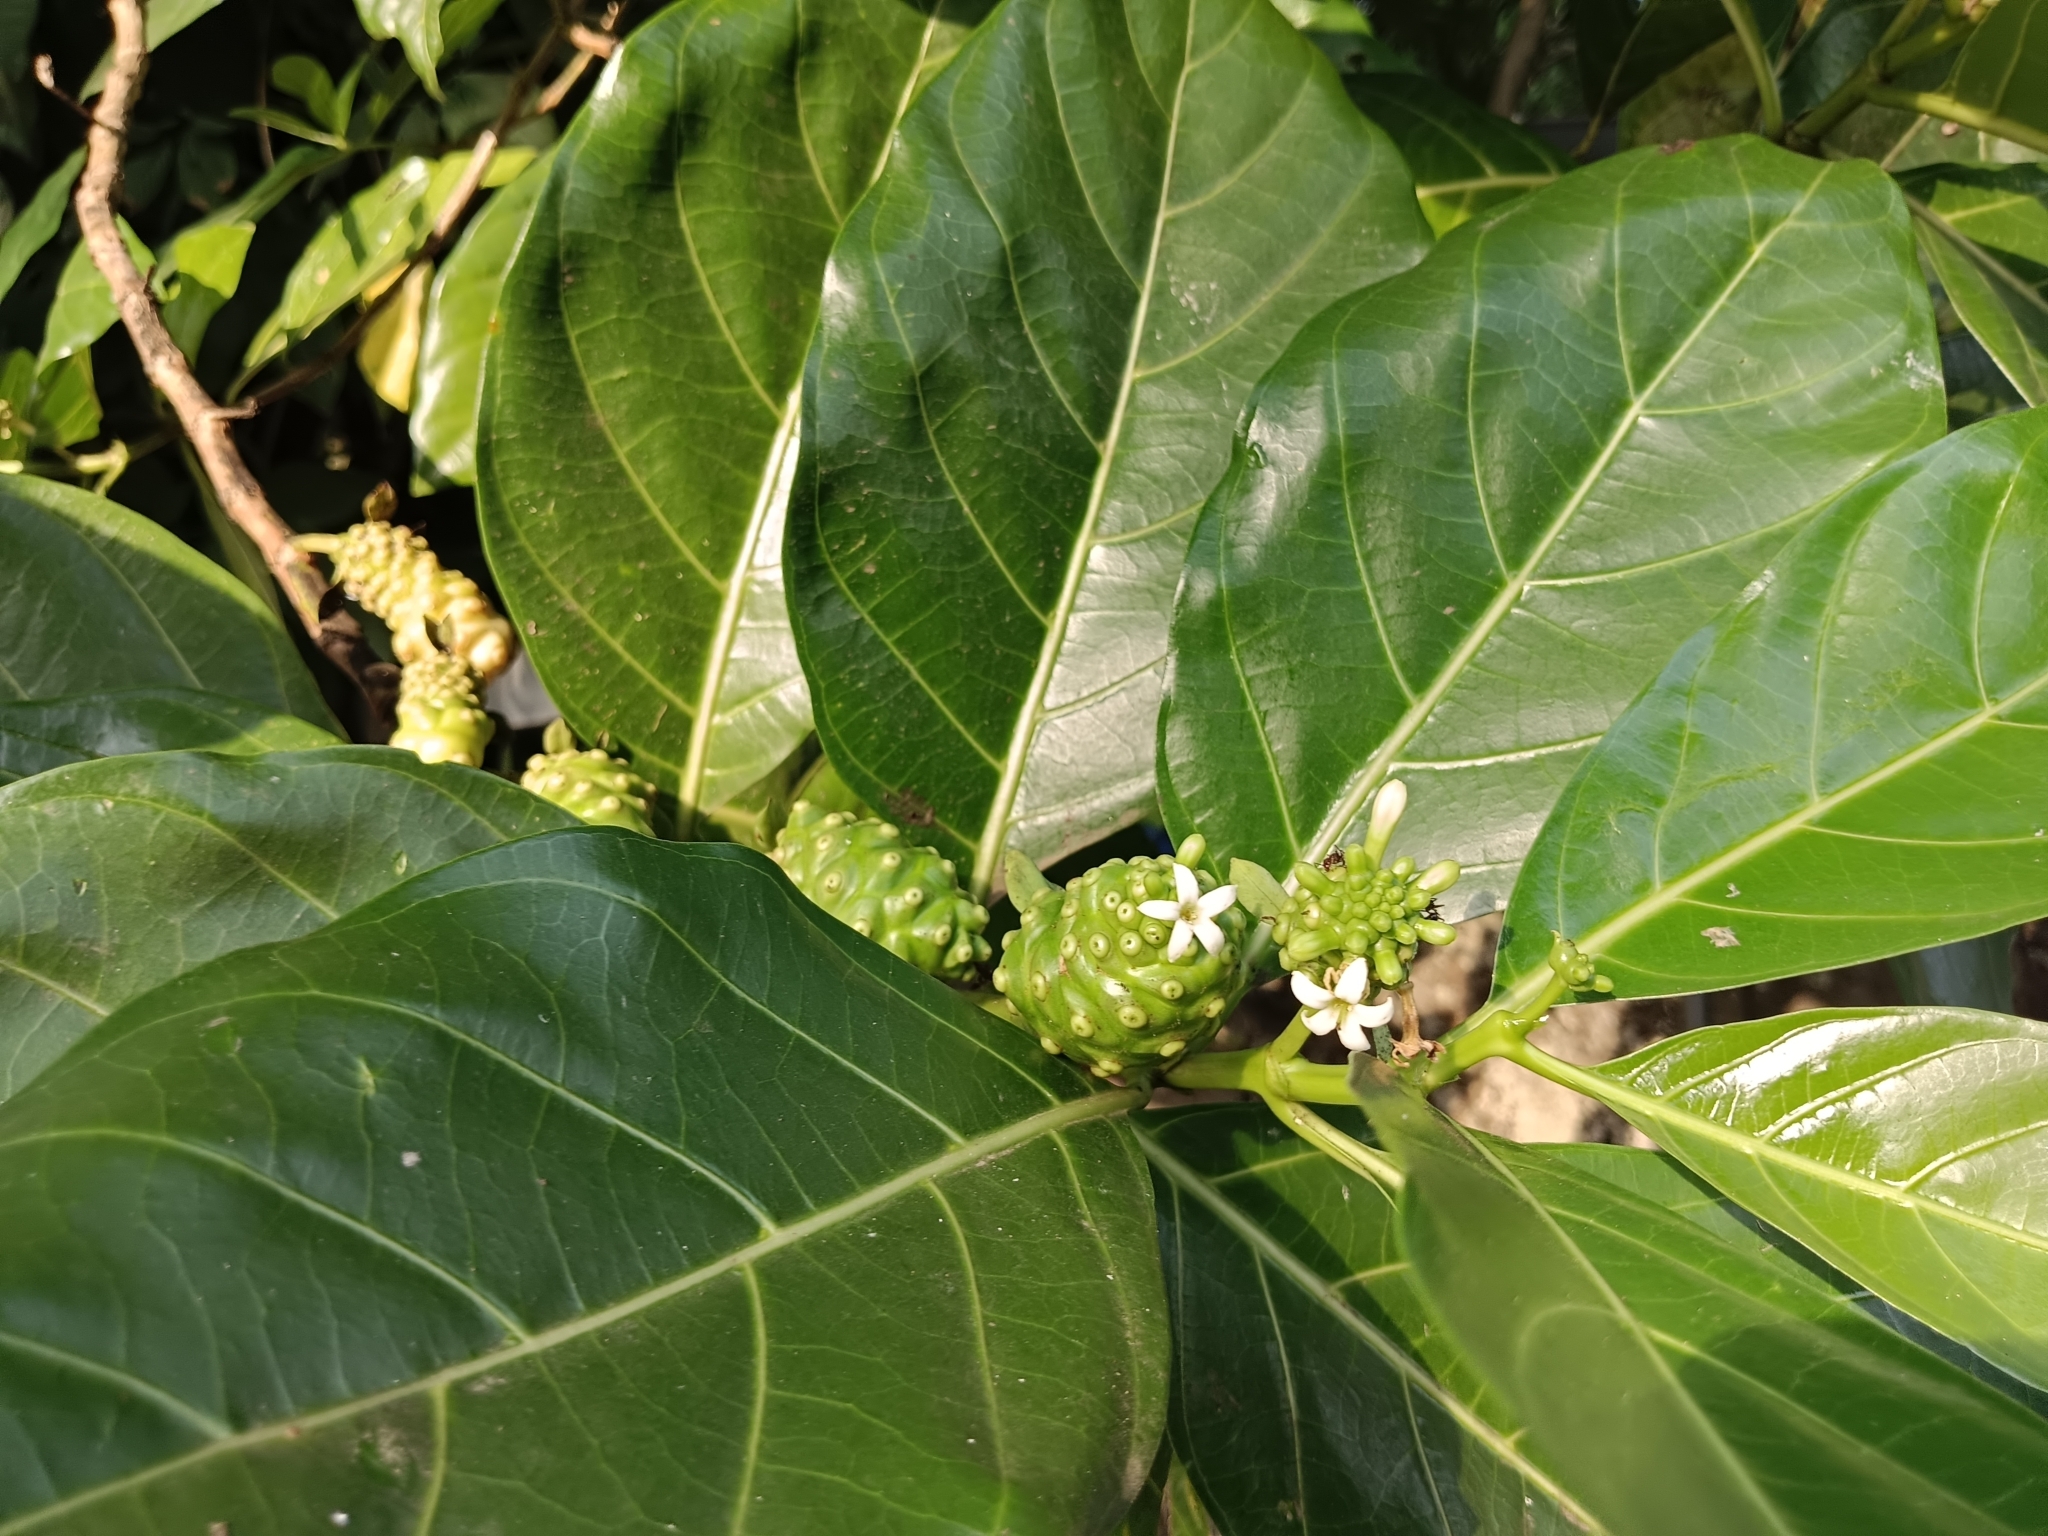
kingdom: Plantae
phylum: Tracheophyta
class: Magnoliopsida
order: Gentianales
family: Rubiaceae
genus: Morinda
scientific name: Morinda citrifolia
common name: Indian-mulberry
